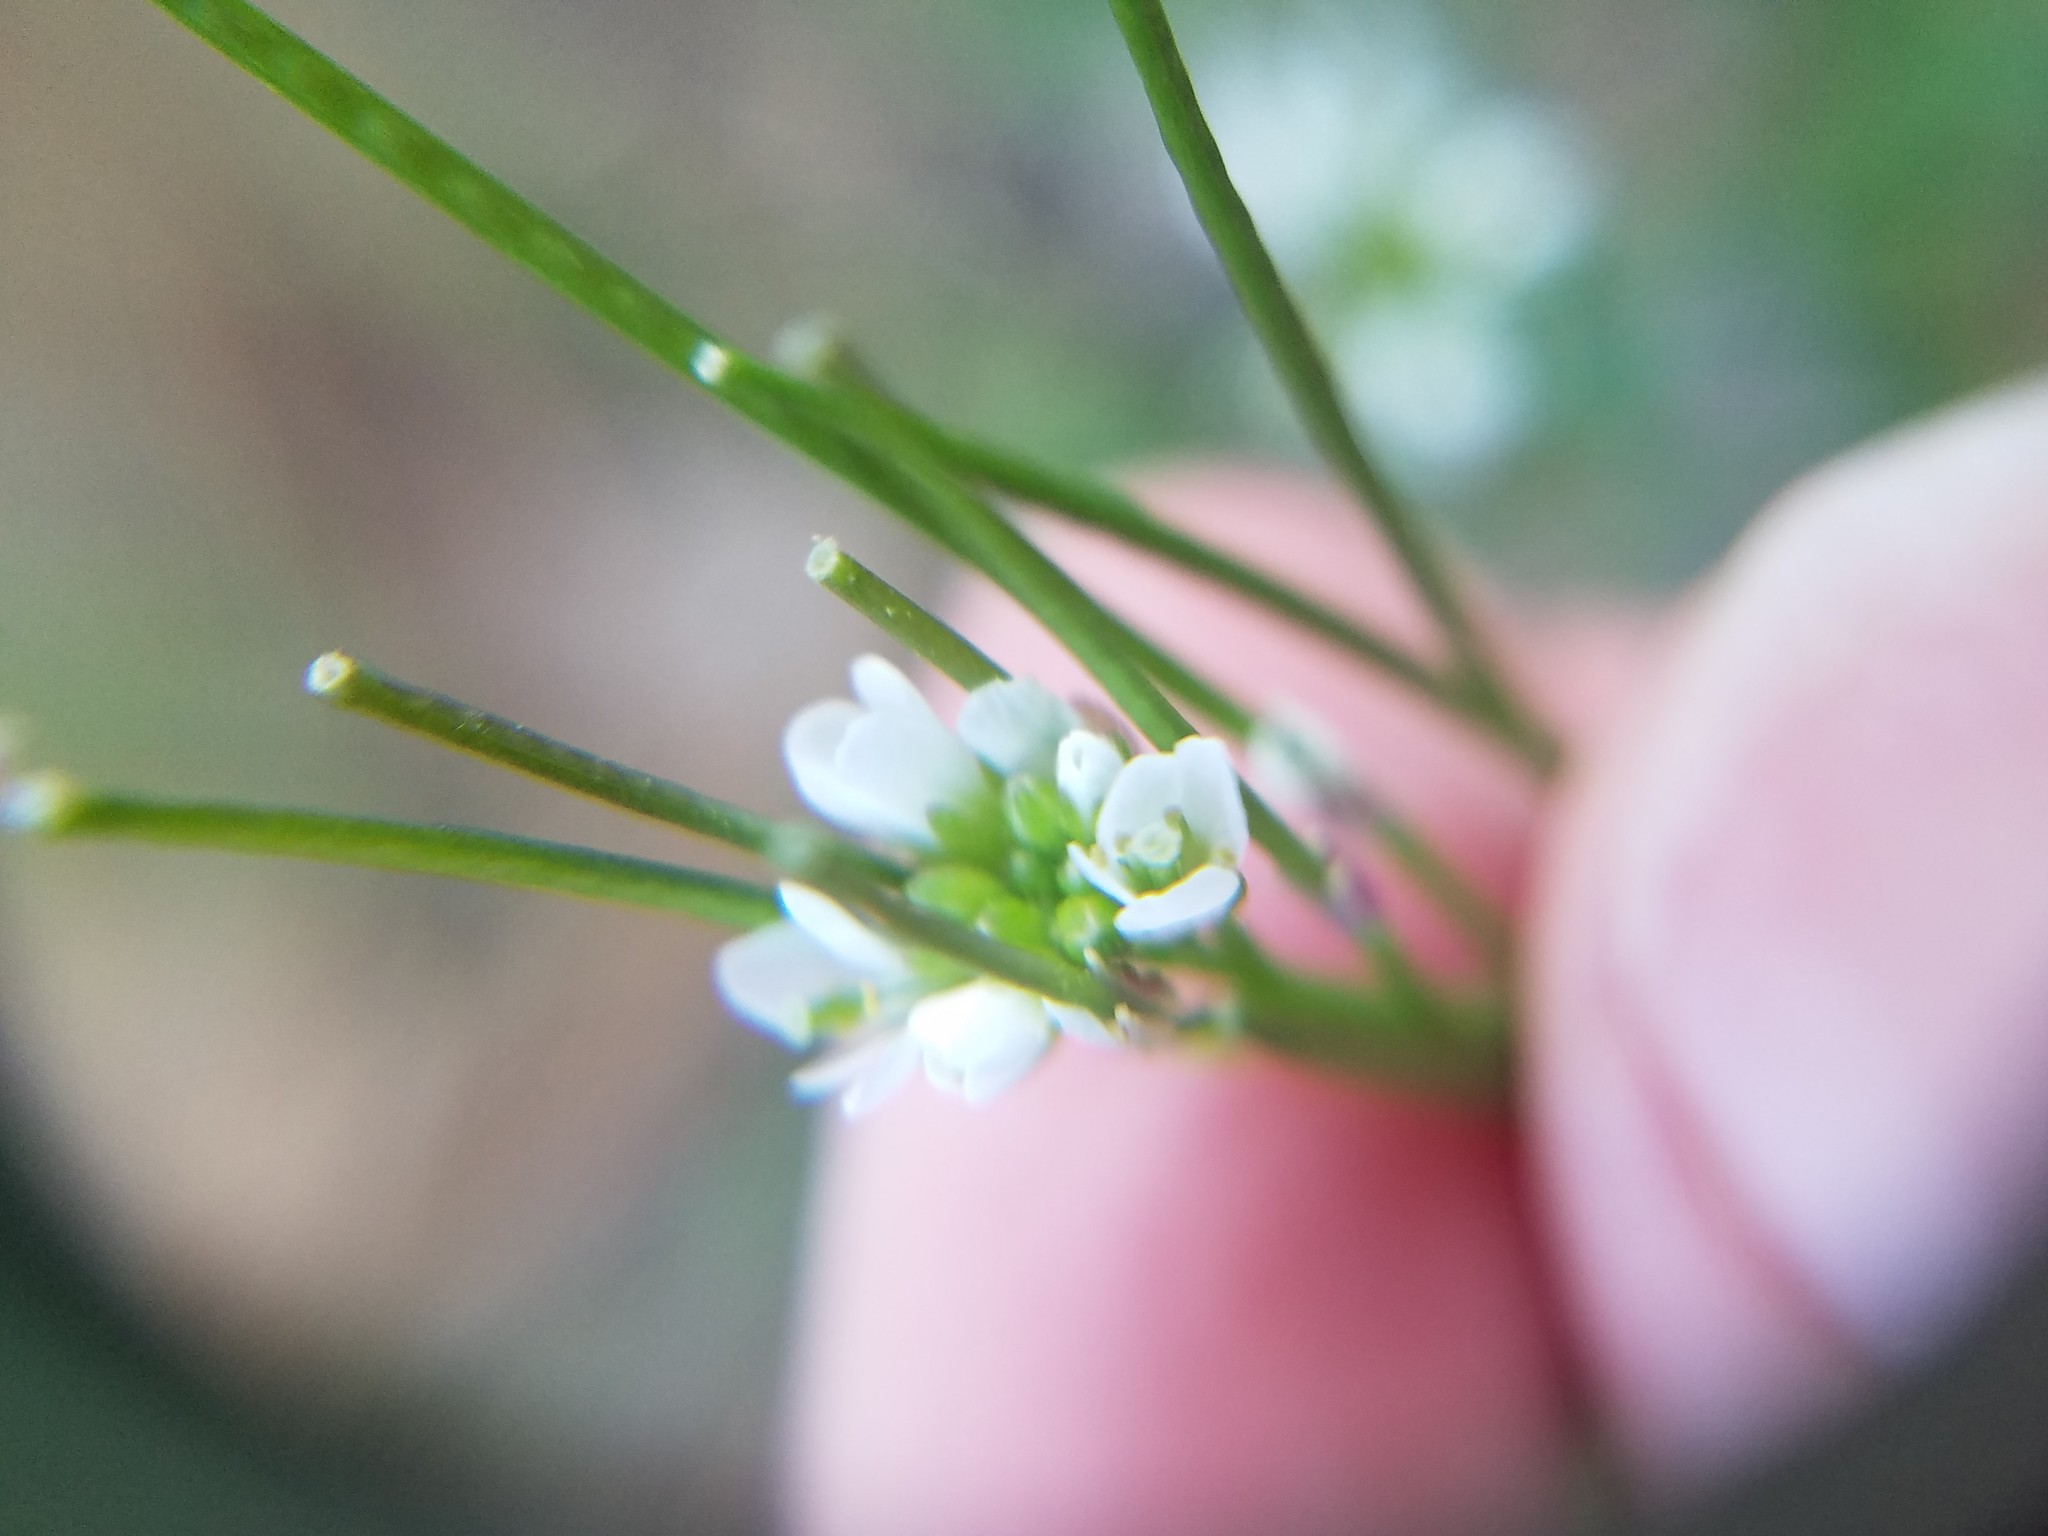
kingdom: Plantae
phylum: Tracheophyta
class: Magnoliopsida
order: Brassicales
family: Brassicaceae
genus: Cardamine
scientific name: Cardamine hirsuta
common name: Hairy bittercress
